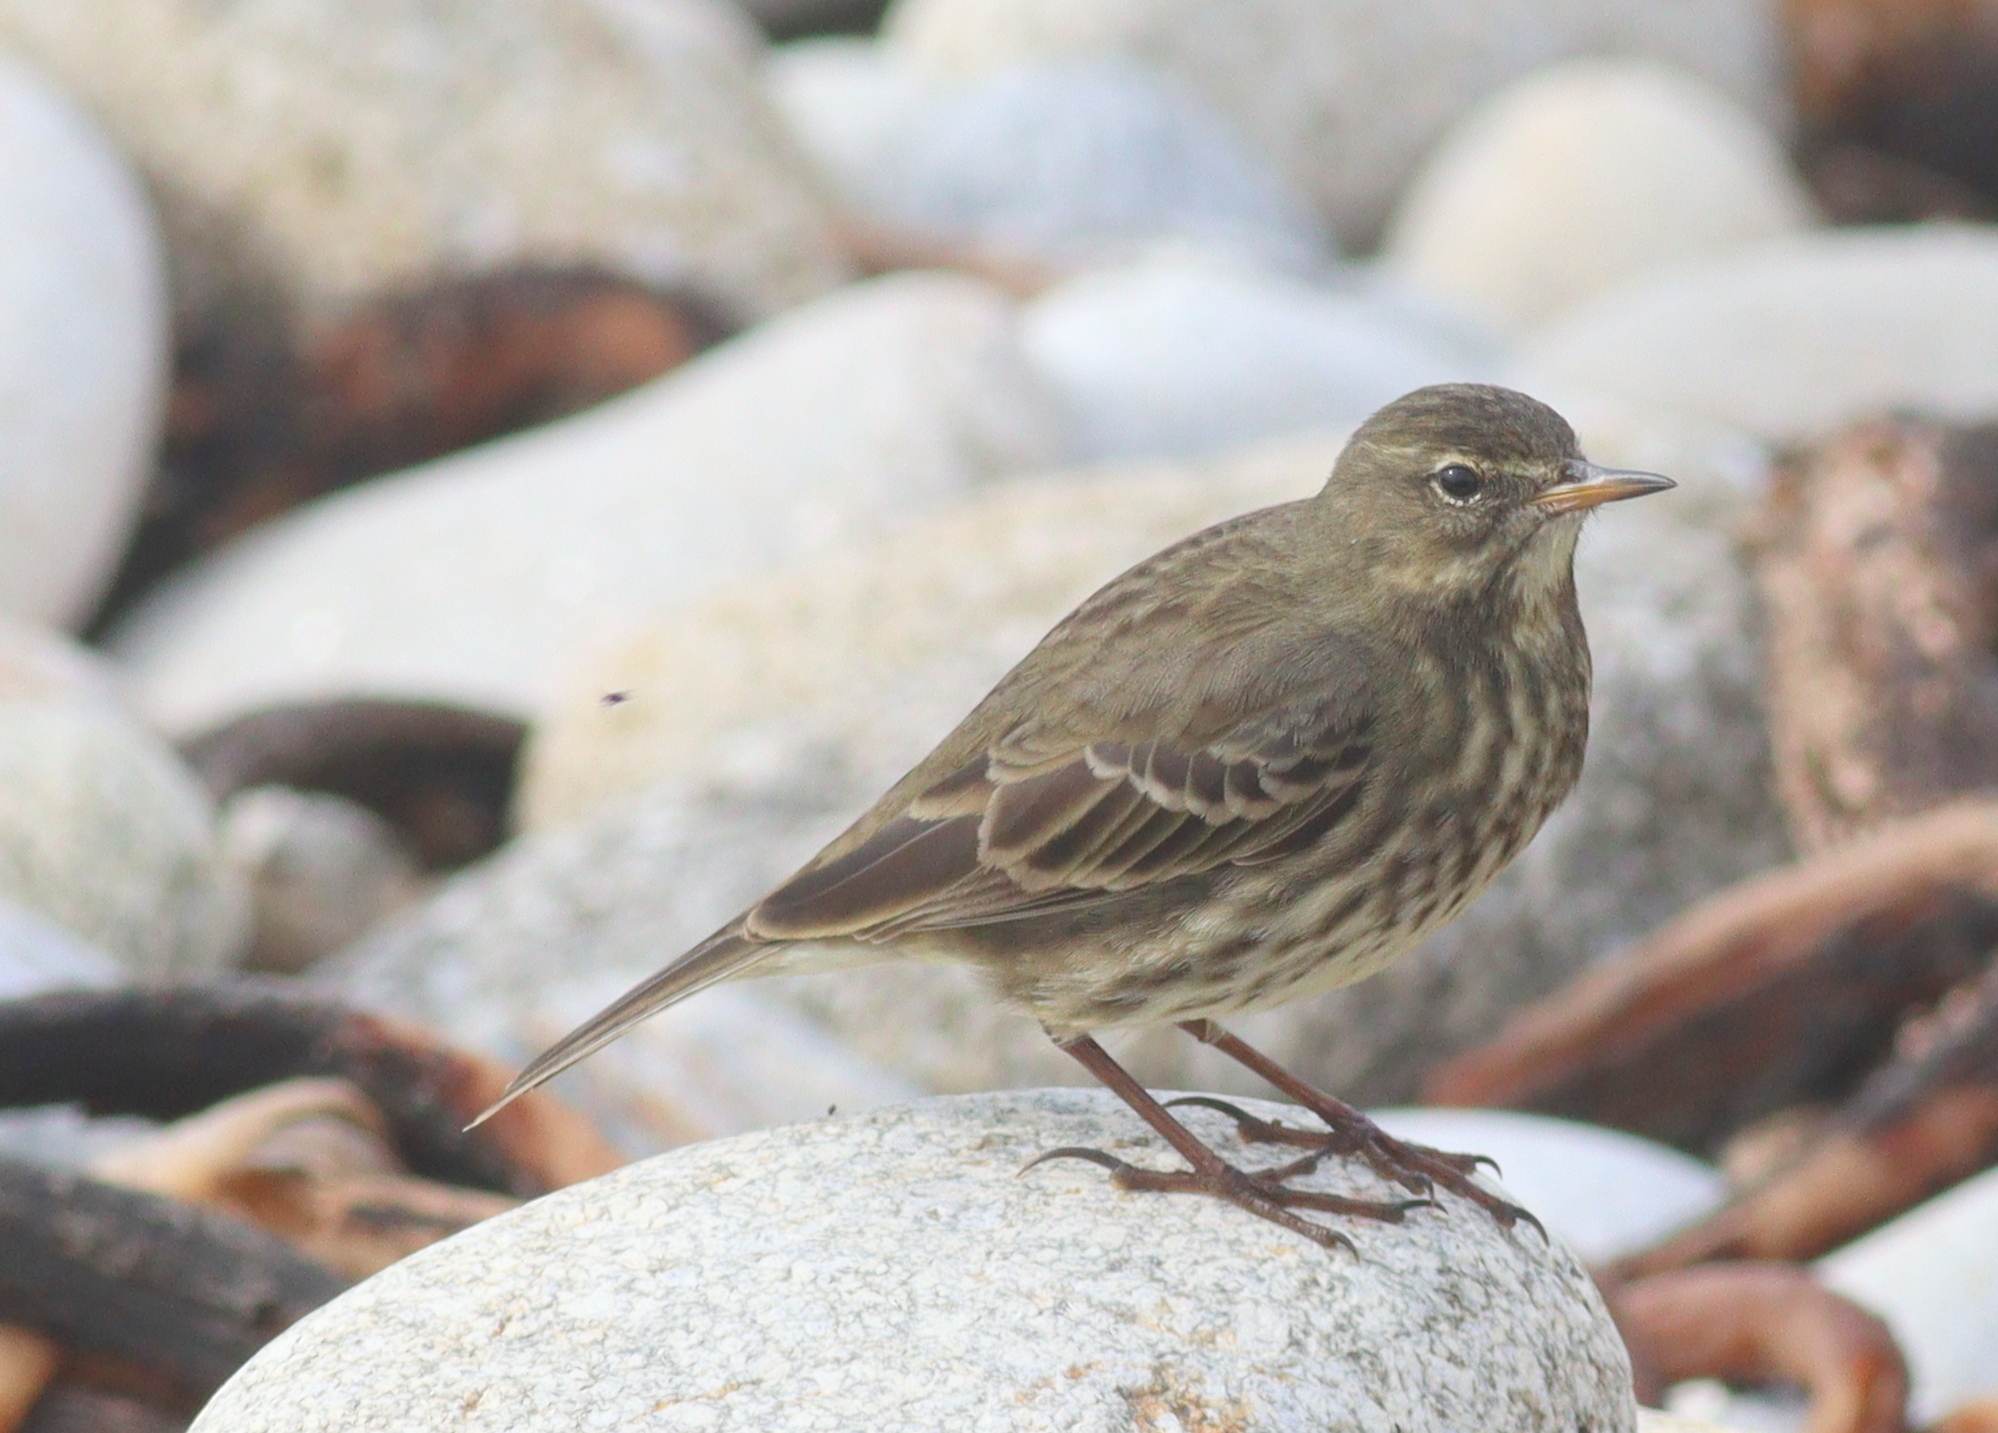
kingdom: Animalia
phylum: Chordata
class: Aves
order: Passeriformes
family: Motacillidae
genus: Anthus
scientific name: Anthus petrosus
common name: Eurasian rock pipit
